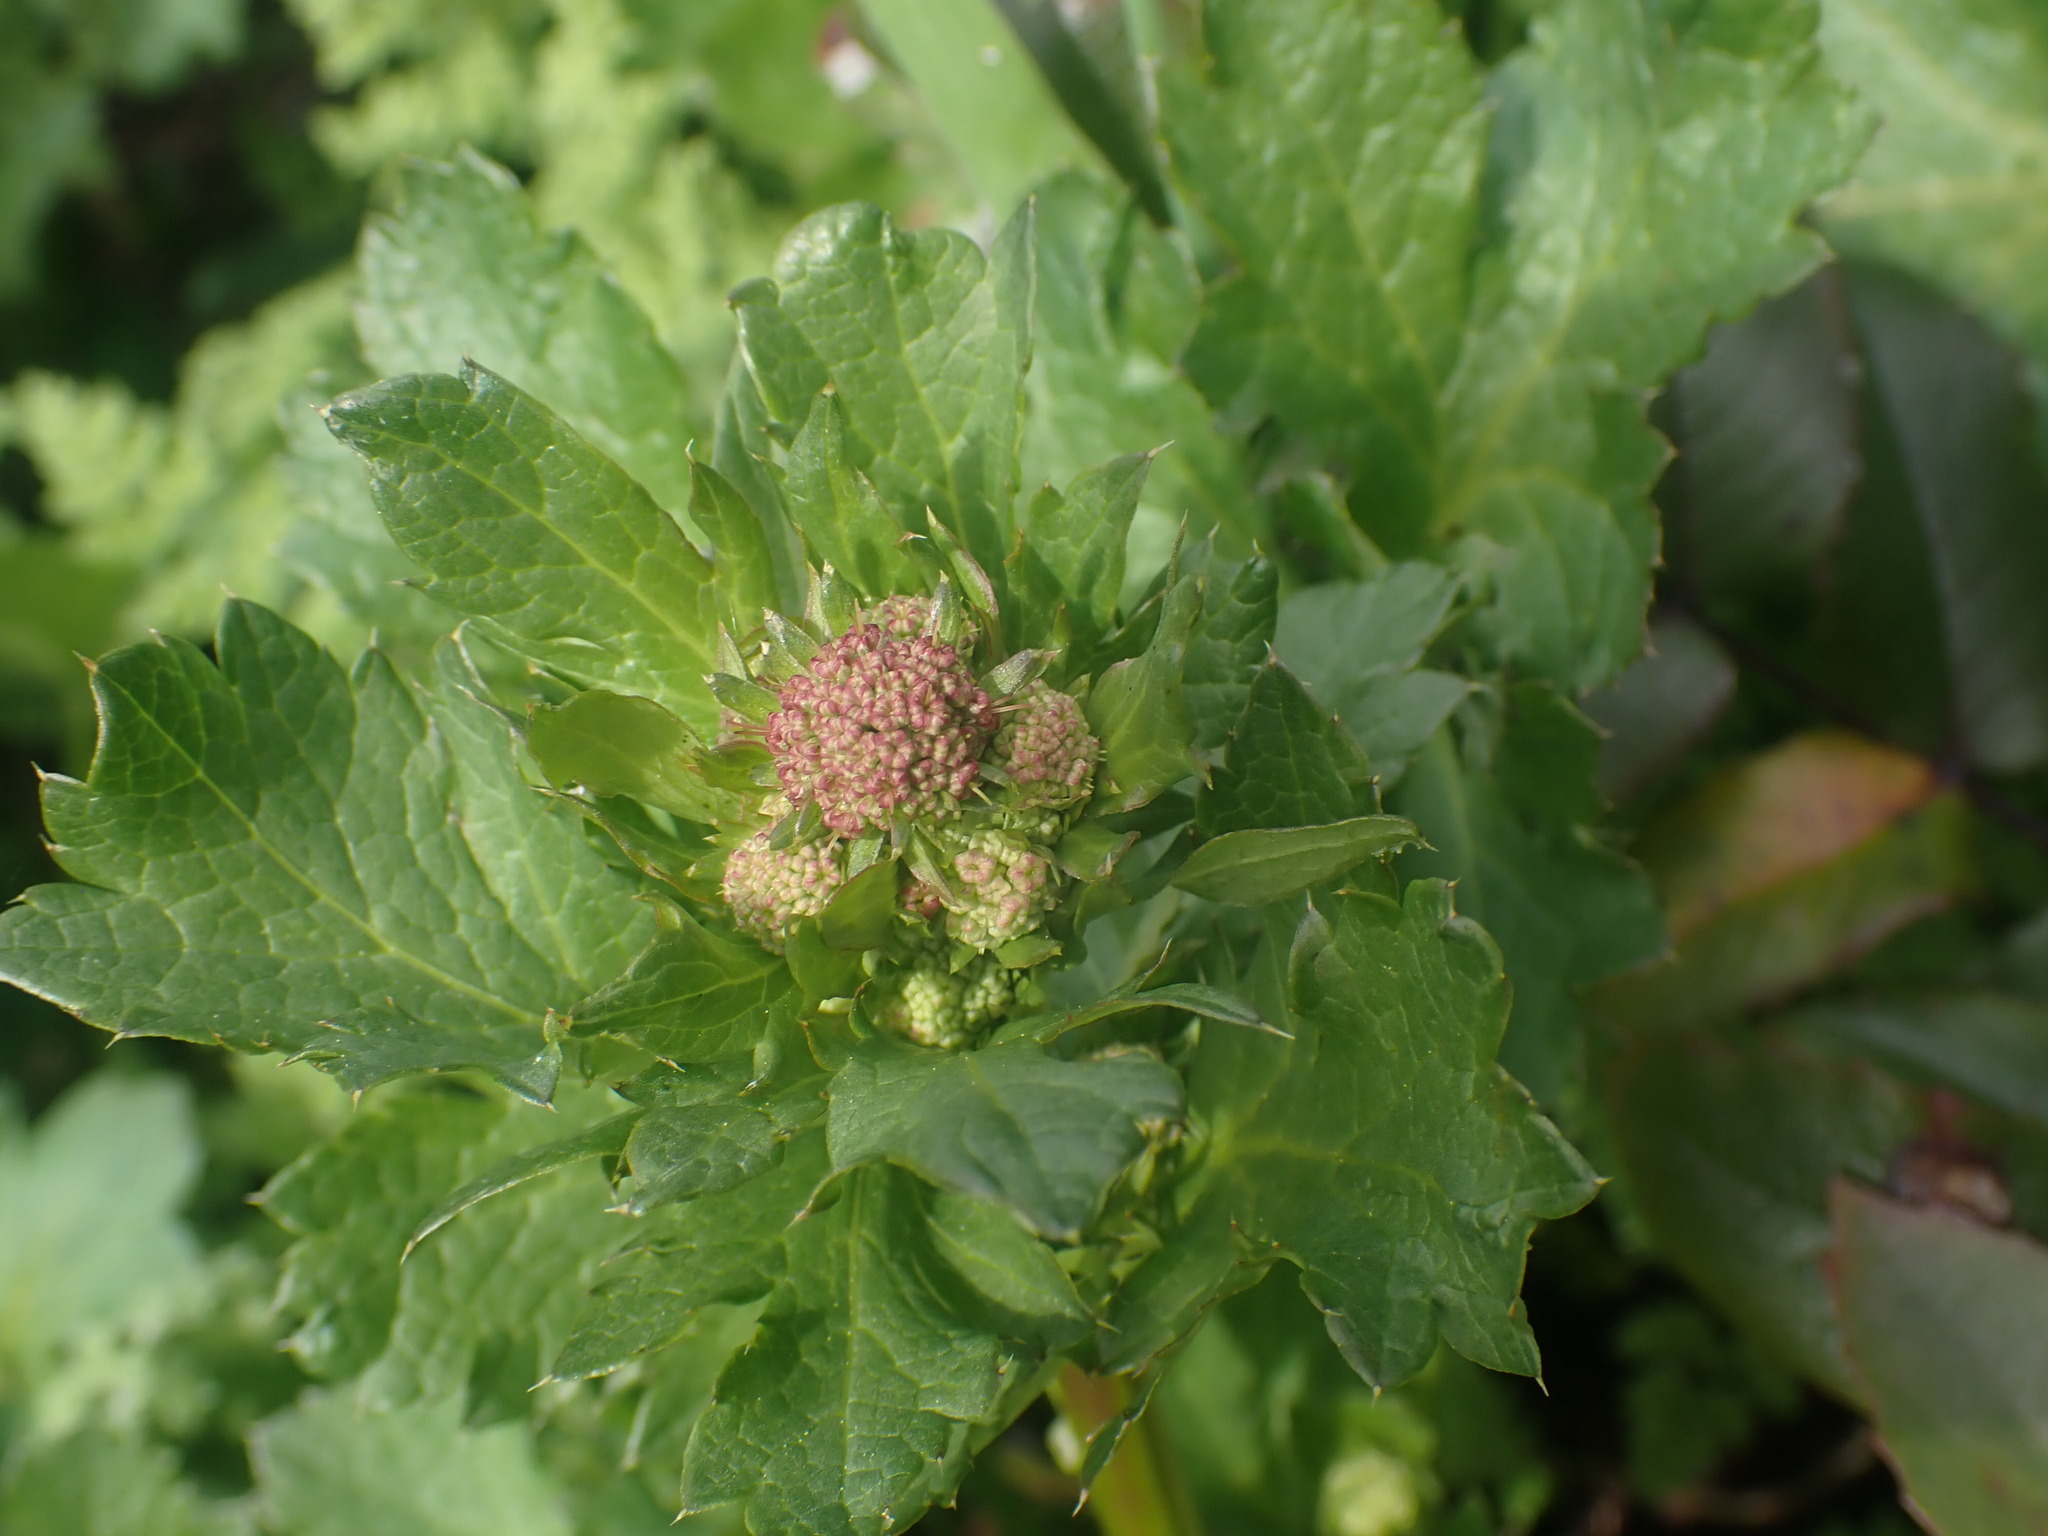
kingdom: Plantae
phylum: Tracheophyta
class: Magnoliopsida
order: Apiales
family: Apiaceae
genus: Sanicula
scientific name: Sanicula crassicaulis
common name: Western snakeroot
